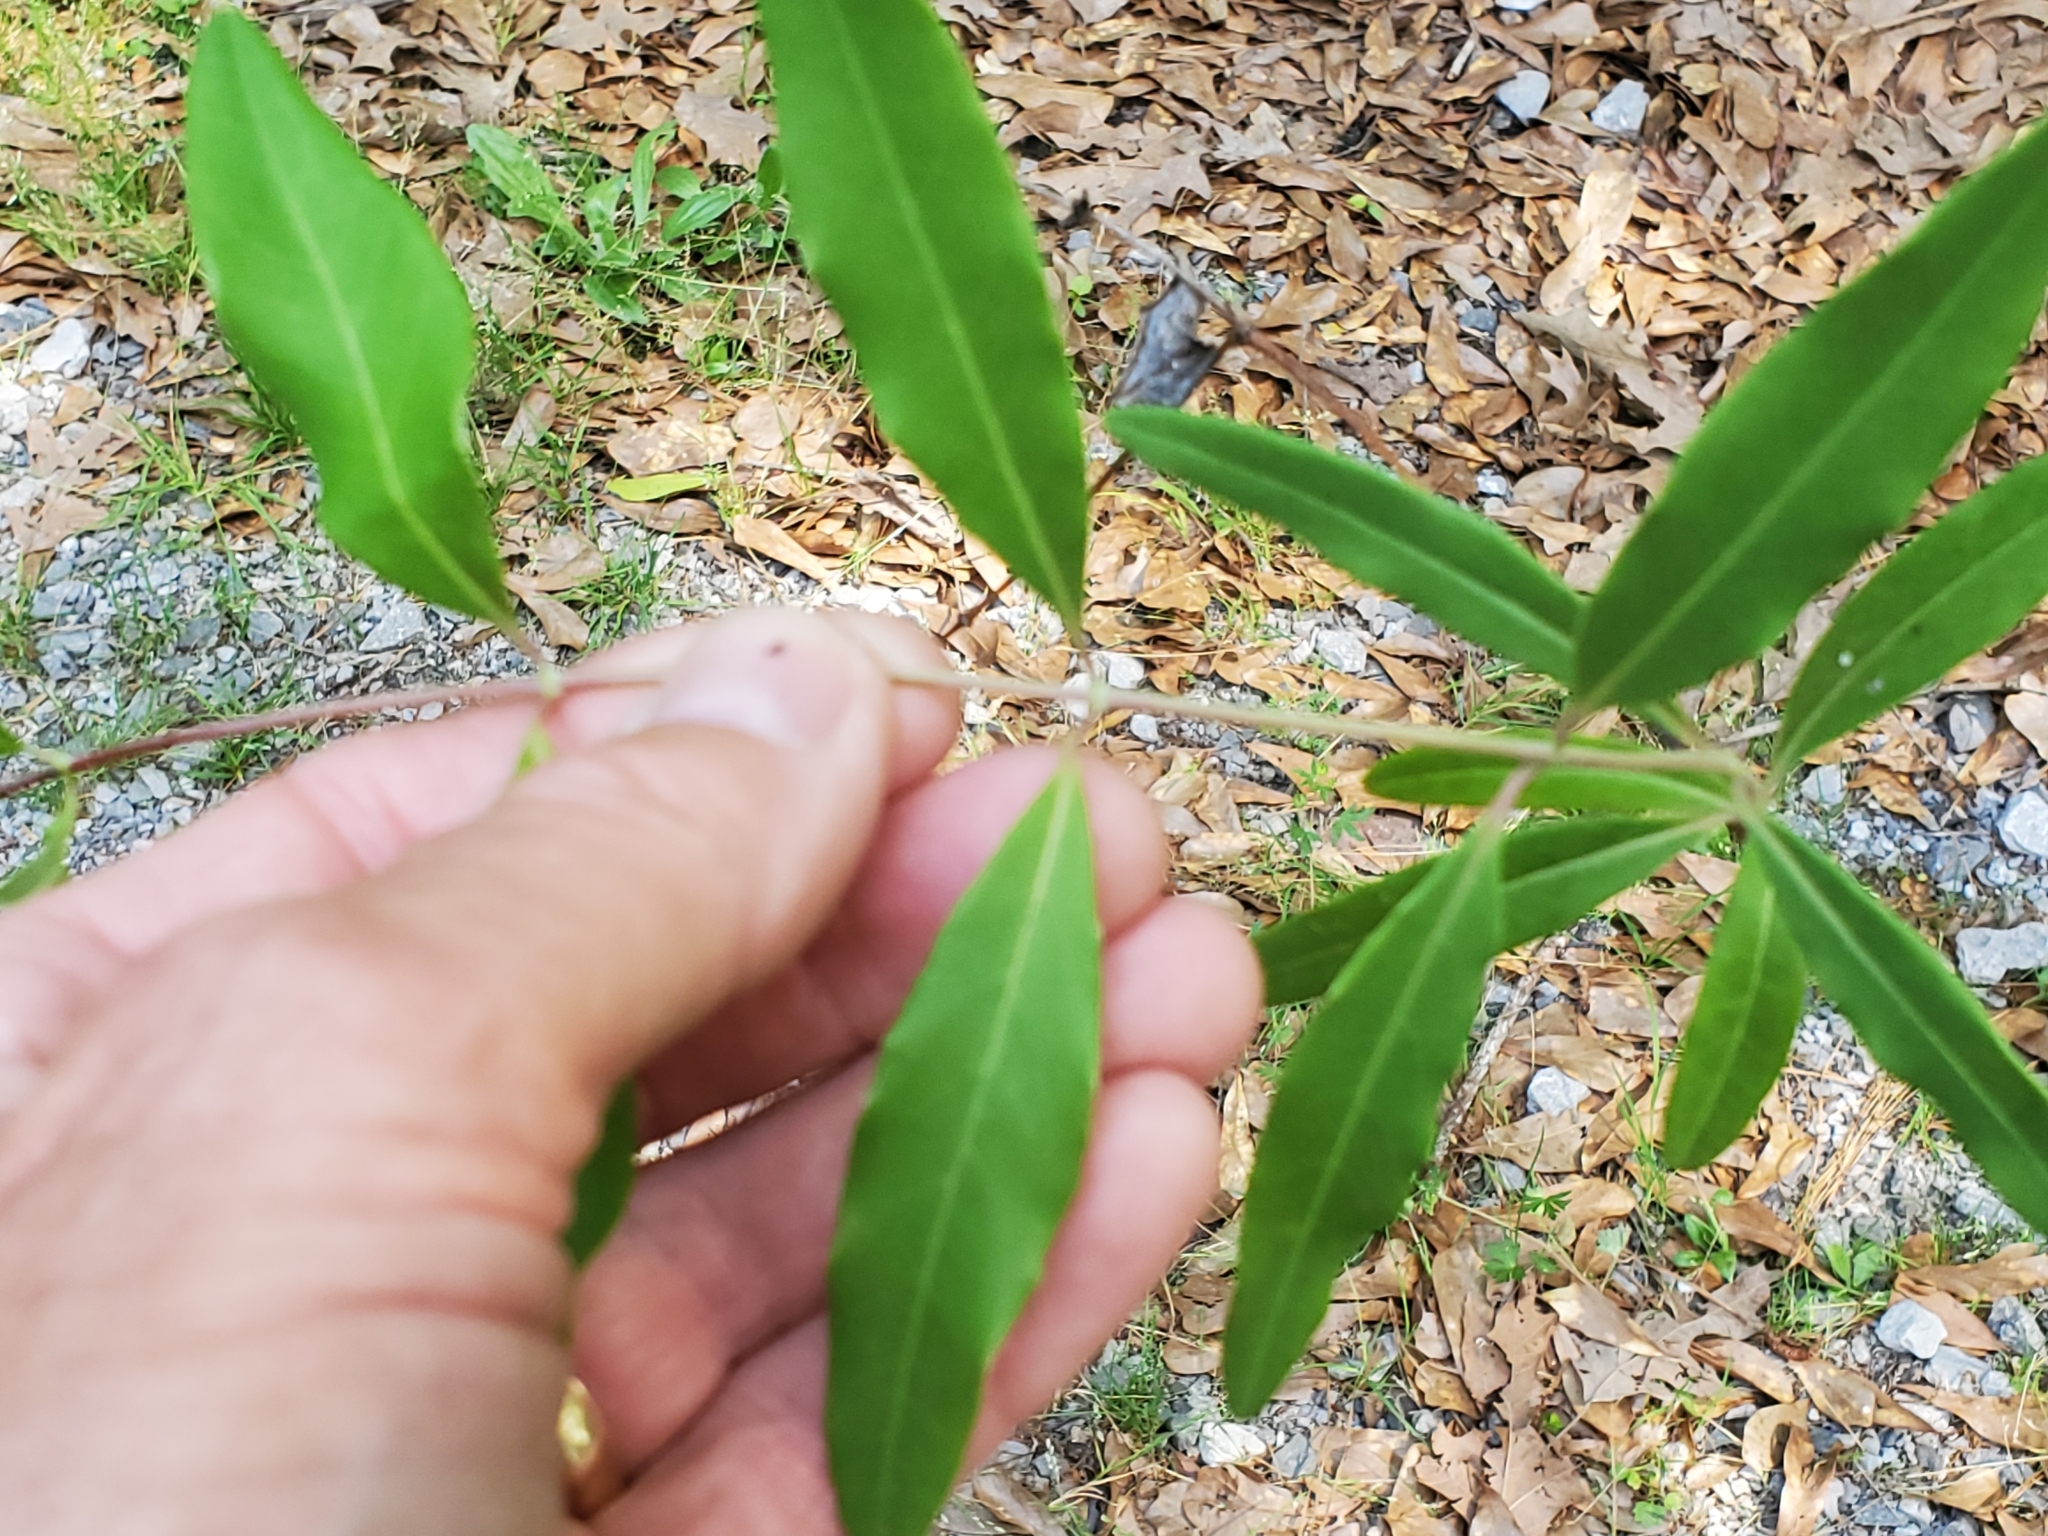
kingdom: Plantae
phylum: Tracheophyta
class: Magnoliopsida
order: Dipsacales
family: Caprifoliaceae
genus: Lonicera
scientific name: Lonicera sempervirens
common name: Coral honeysuckle
